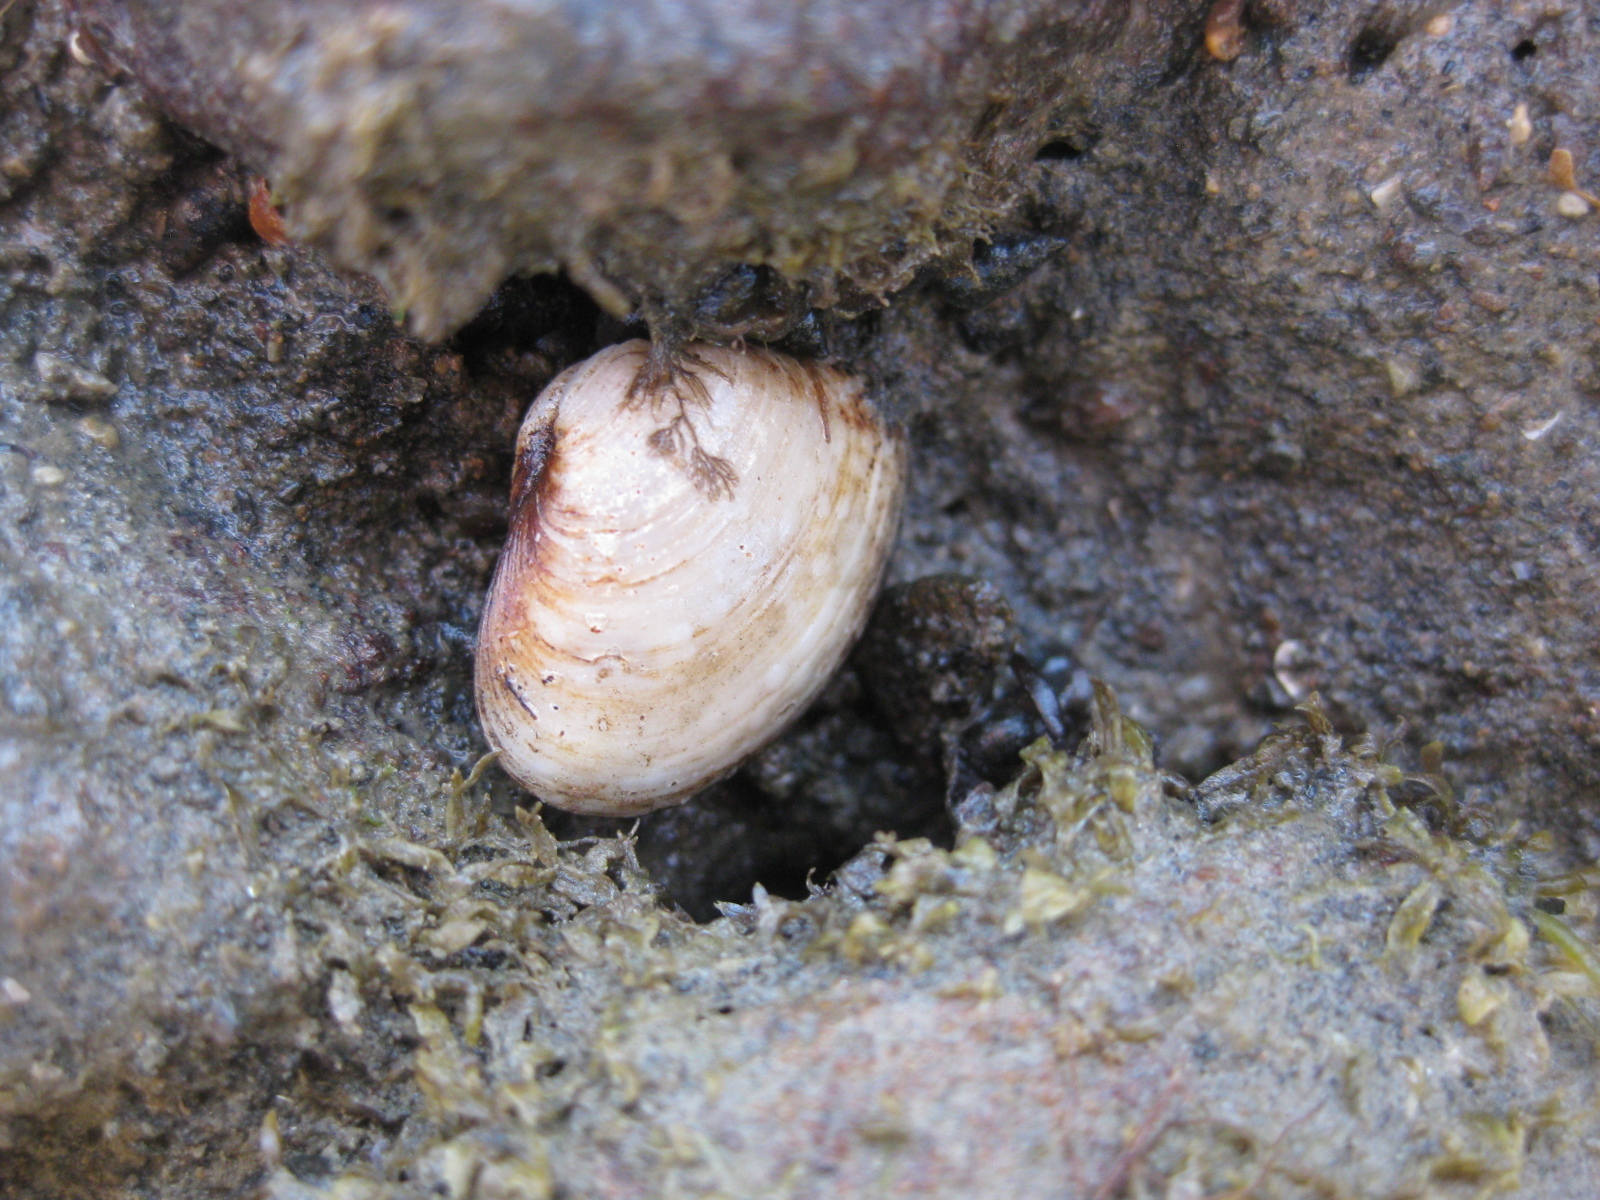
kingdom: Animalia
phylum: Mollusca
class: Bivalvia
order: Venerida
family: Mesodesmatidae
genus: Paphies
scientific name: Paphies australis
